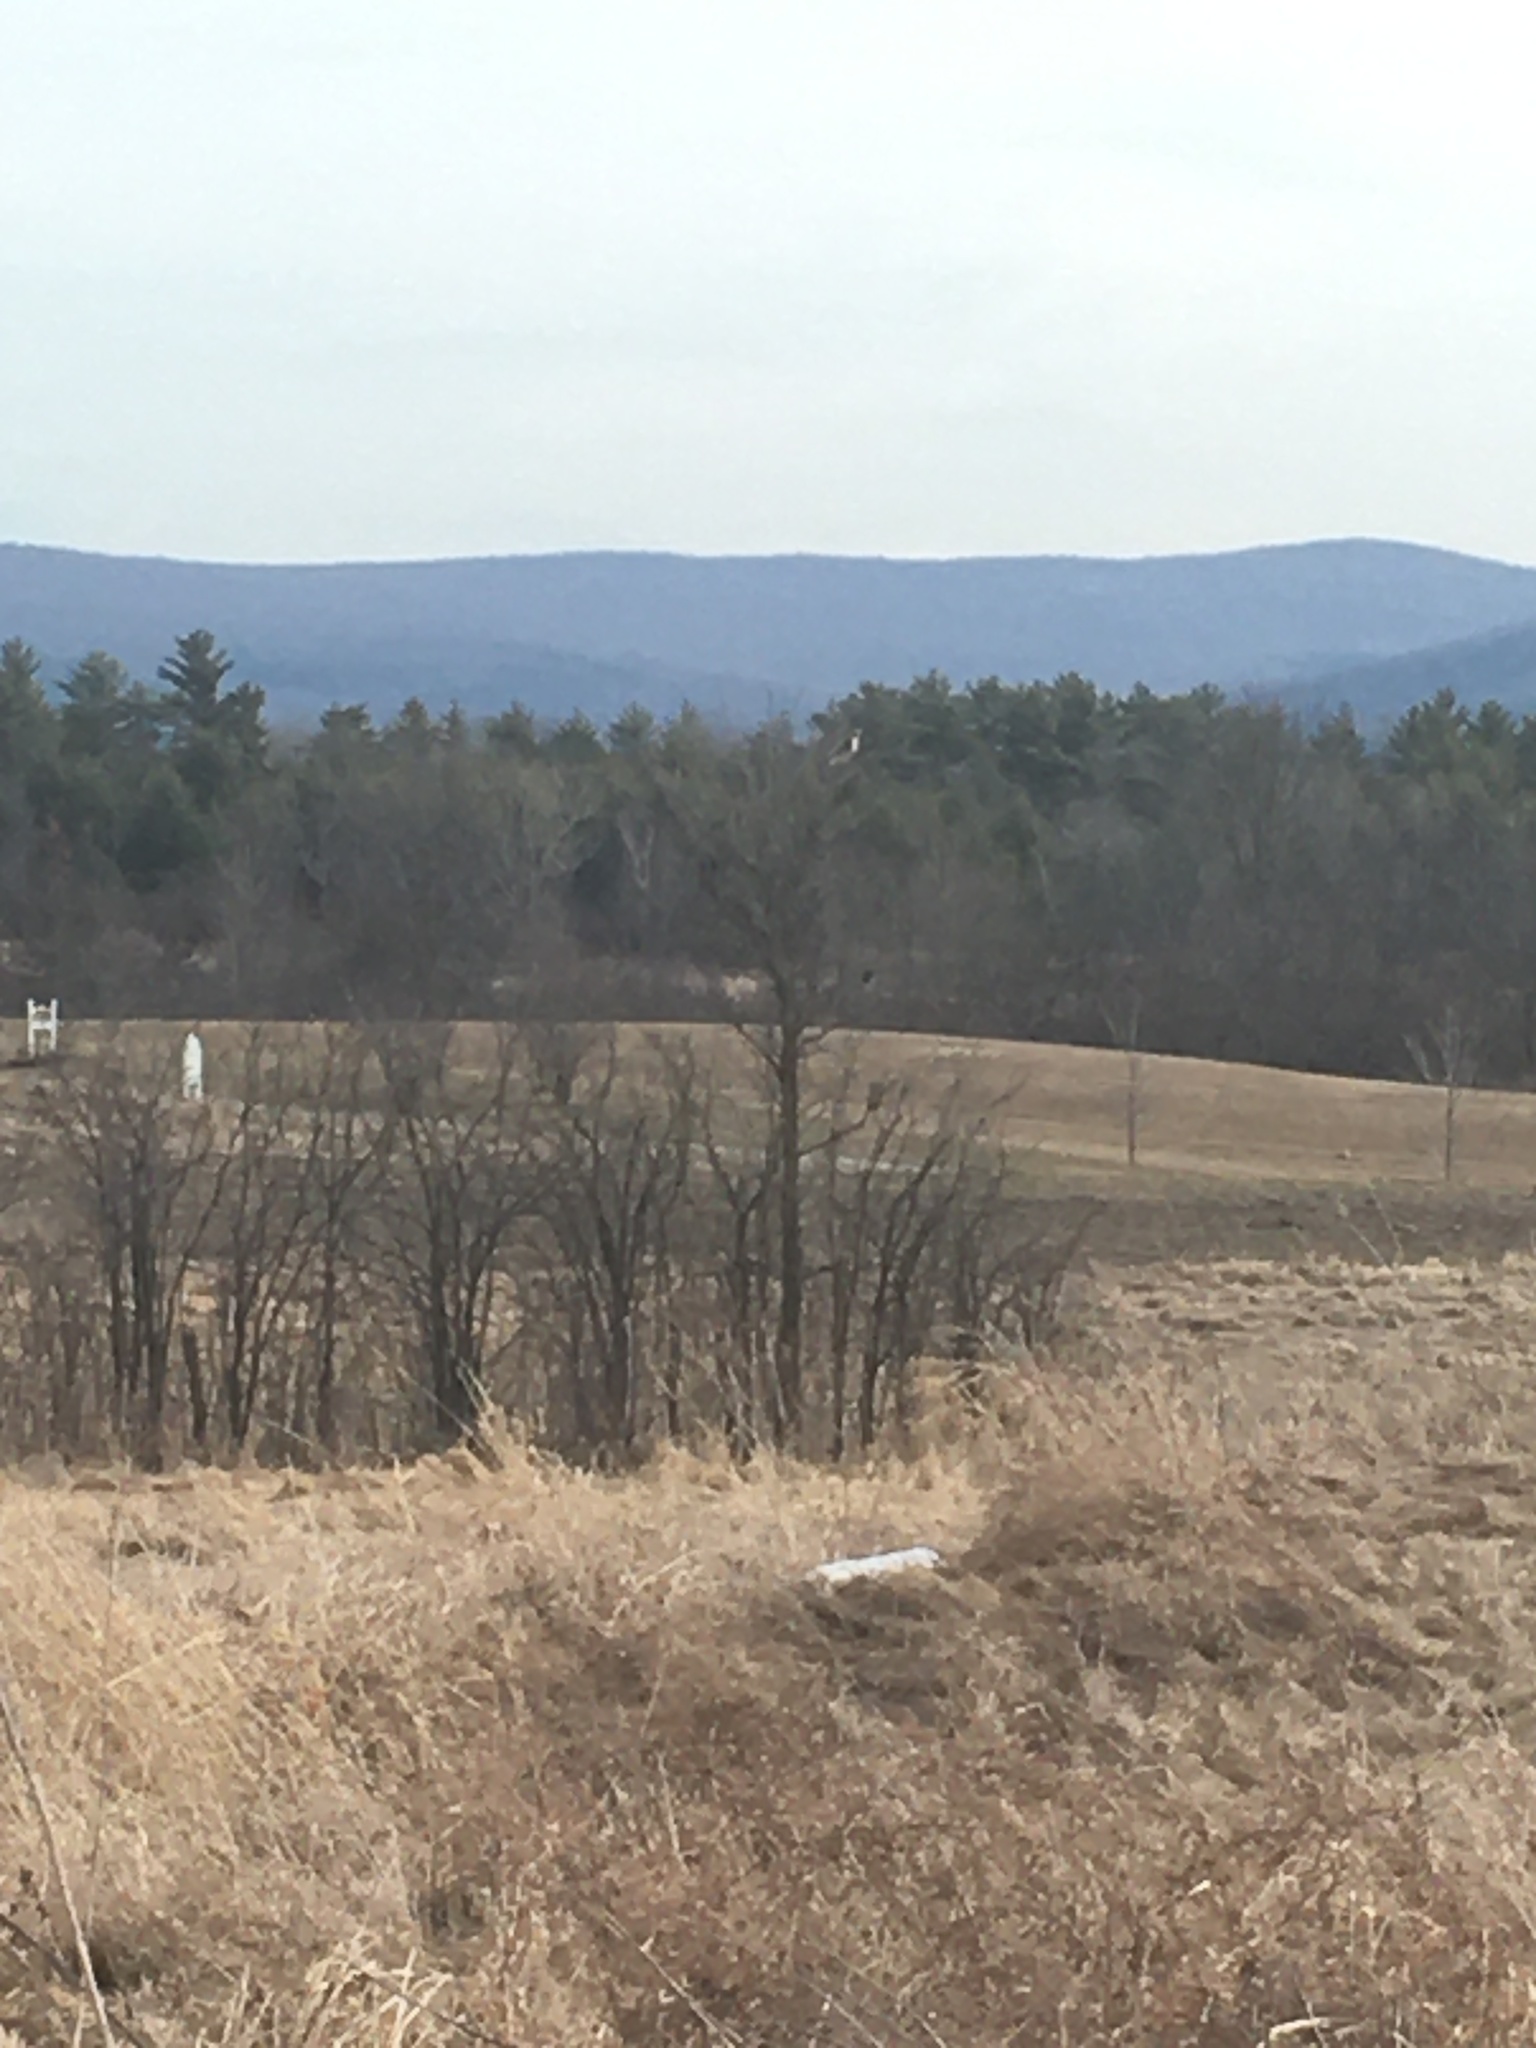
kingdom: Animalia
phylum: Chordata
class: Aves
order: Accipitriformes
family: Accipitridae
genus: Buteo
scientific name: Buteo jamaicensis
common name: Red-tailed hawk
